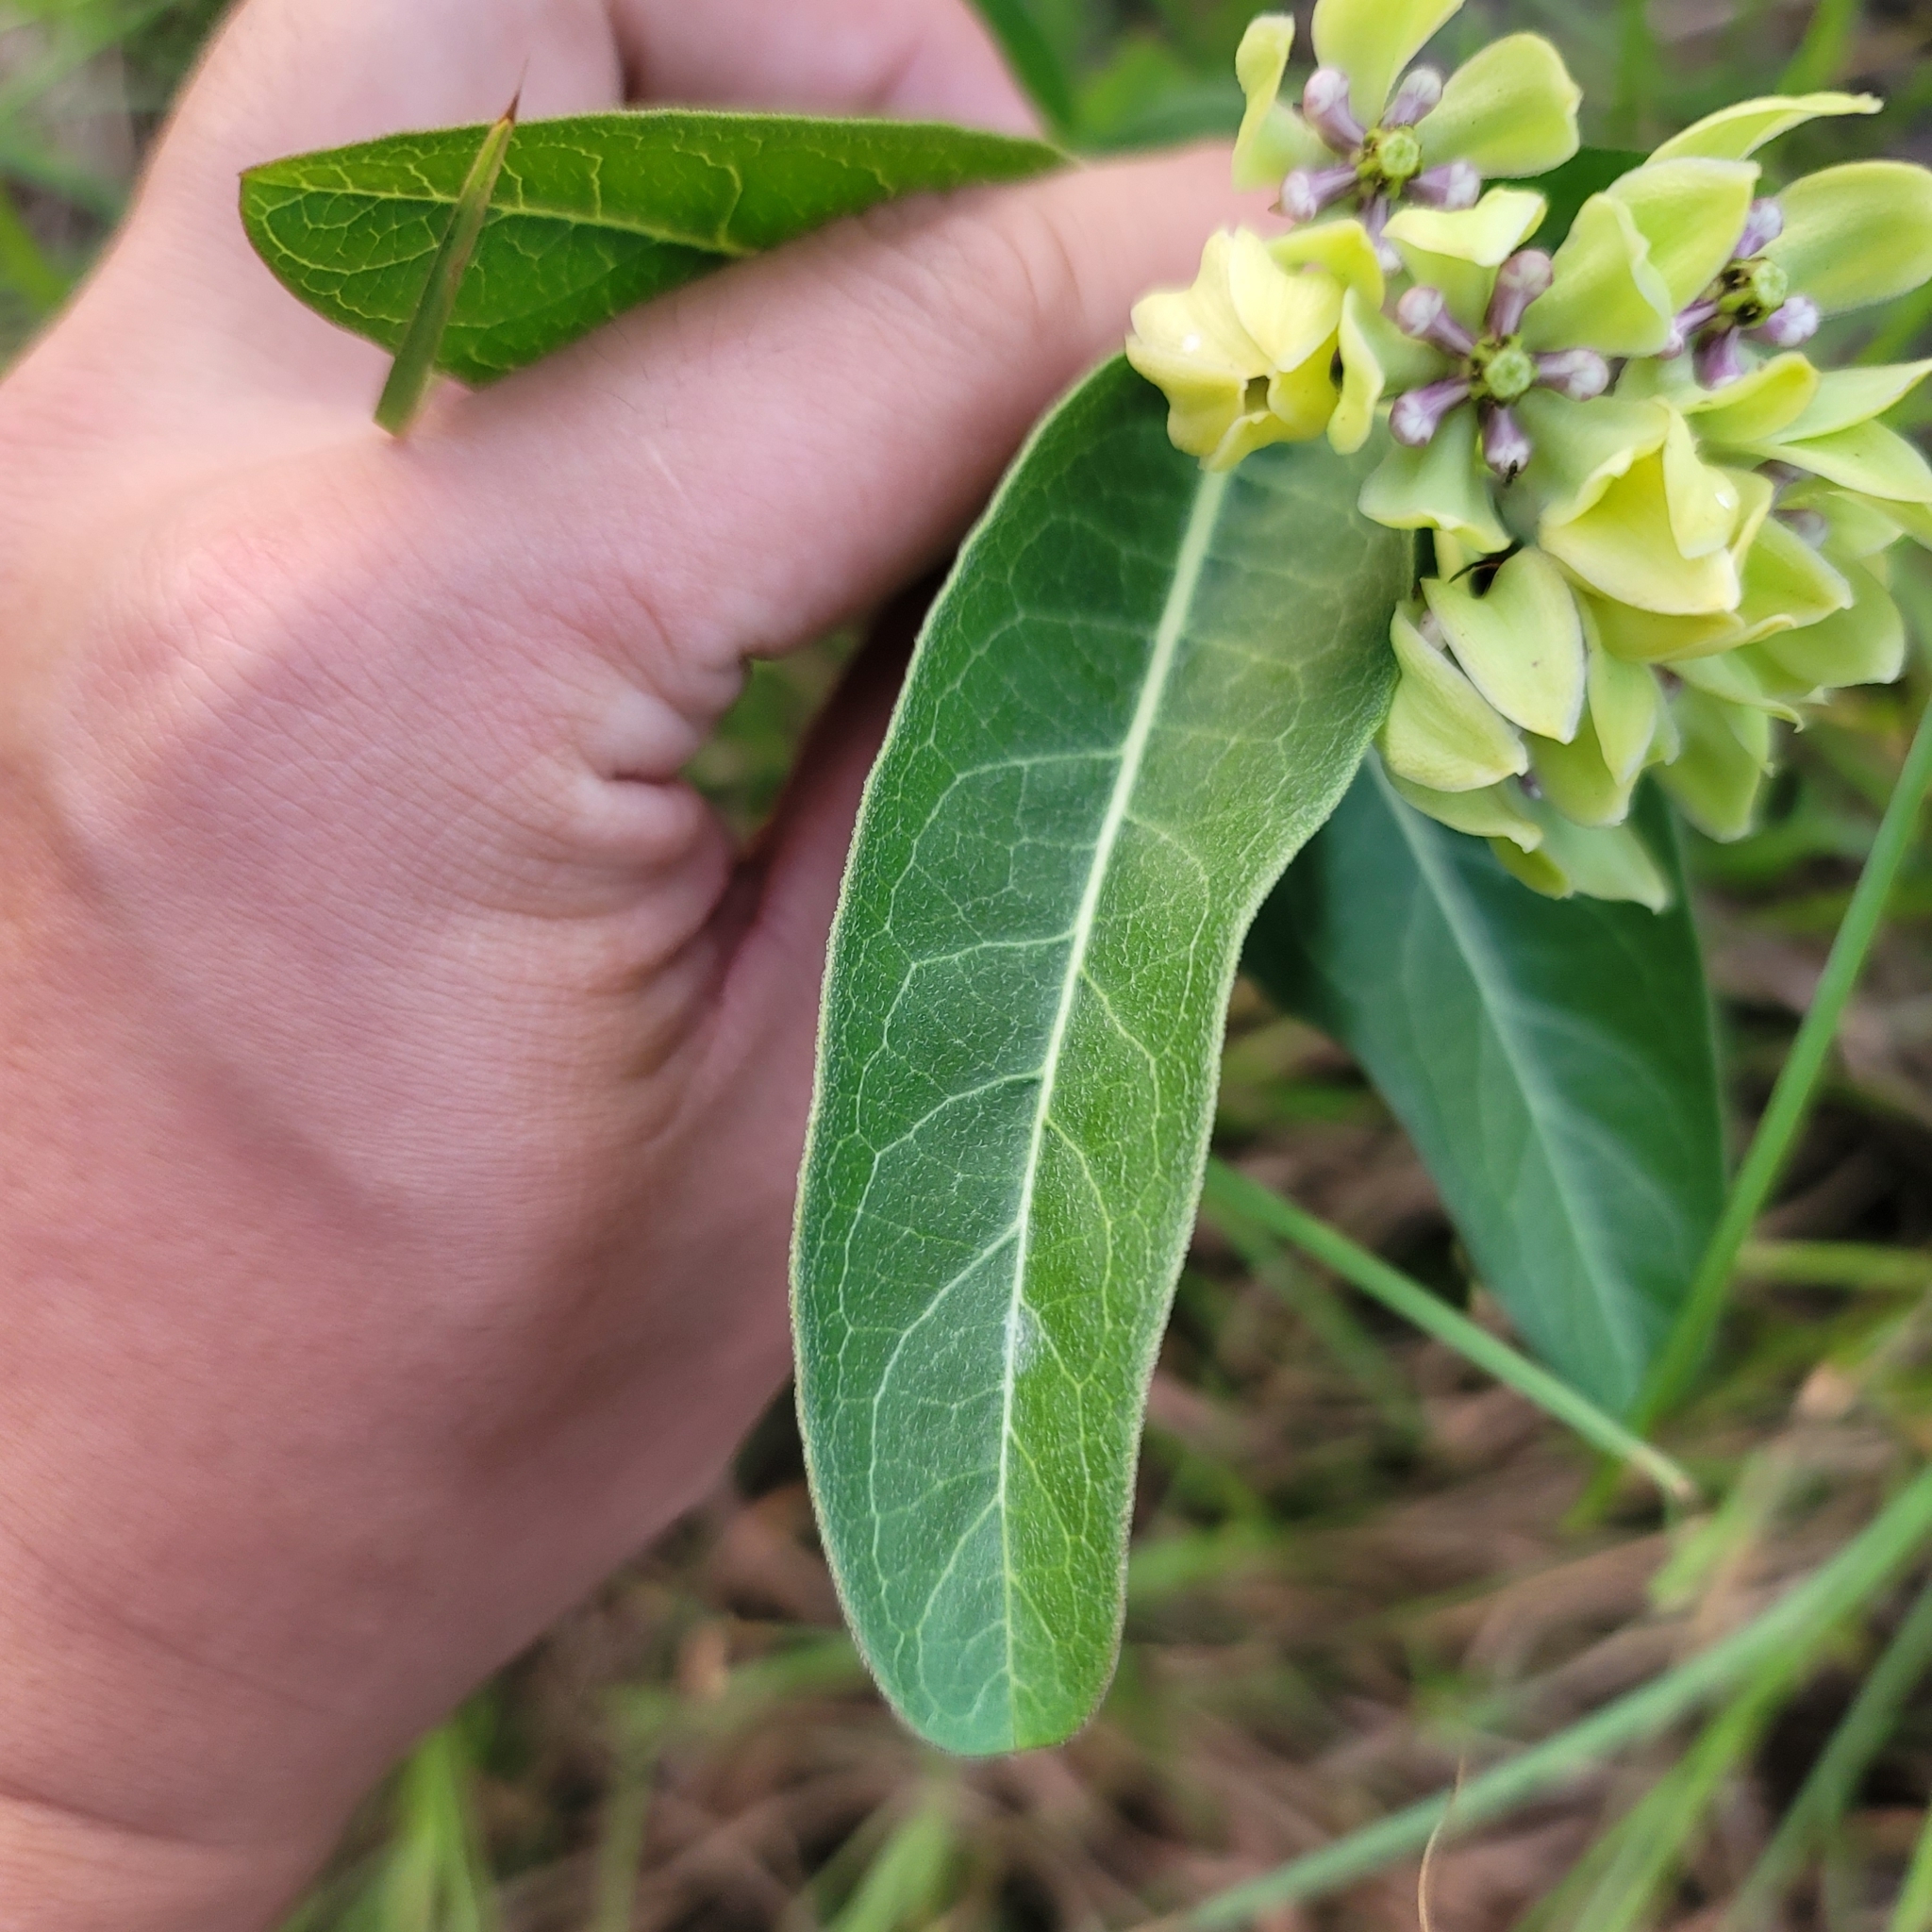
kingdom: Plantae
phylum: Tracheophyta
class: Magnoliopsida
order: Gentianales
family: Apocynaceae
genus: Asclepias
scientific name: Asclepias viridis
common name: Antelope-horns
